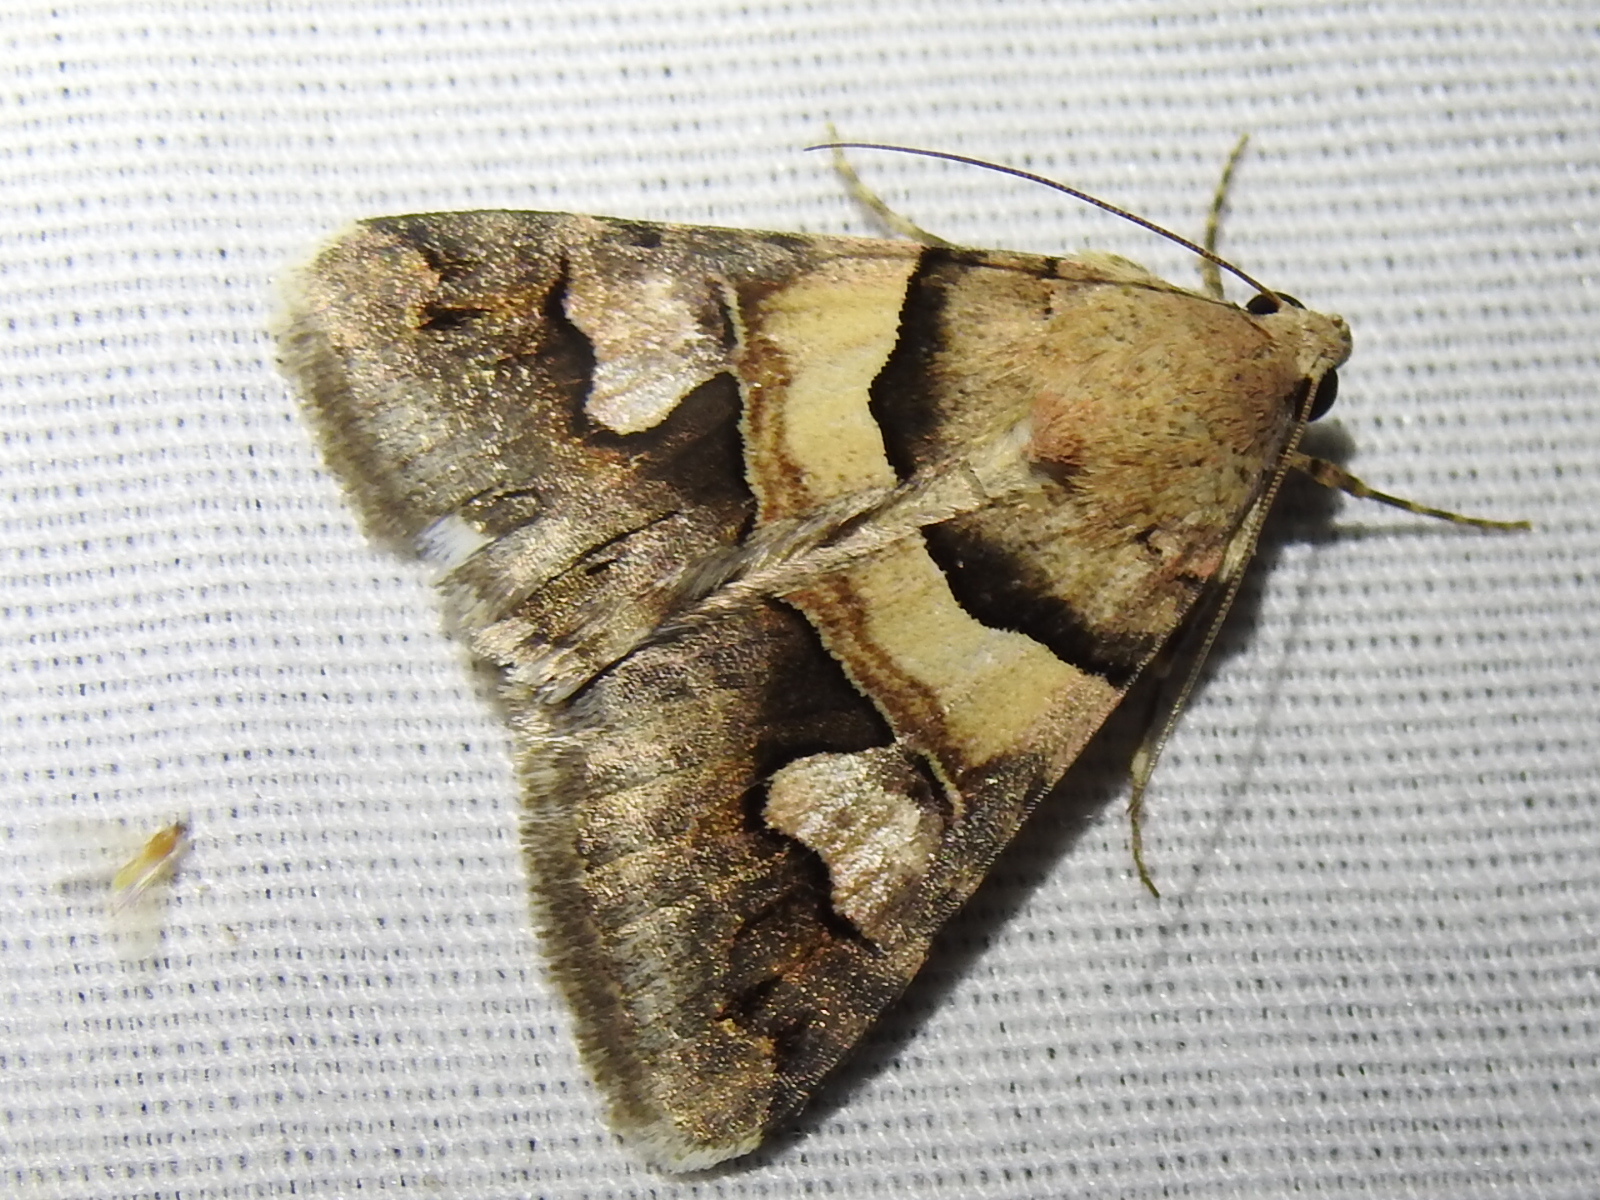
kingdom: Animalia
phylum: Arthropoda
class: Insecta
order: Lepidoptera
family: Erebidae
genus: Drasteria
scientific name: Drasteria pallescens
